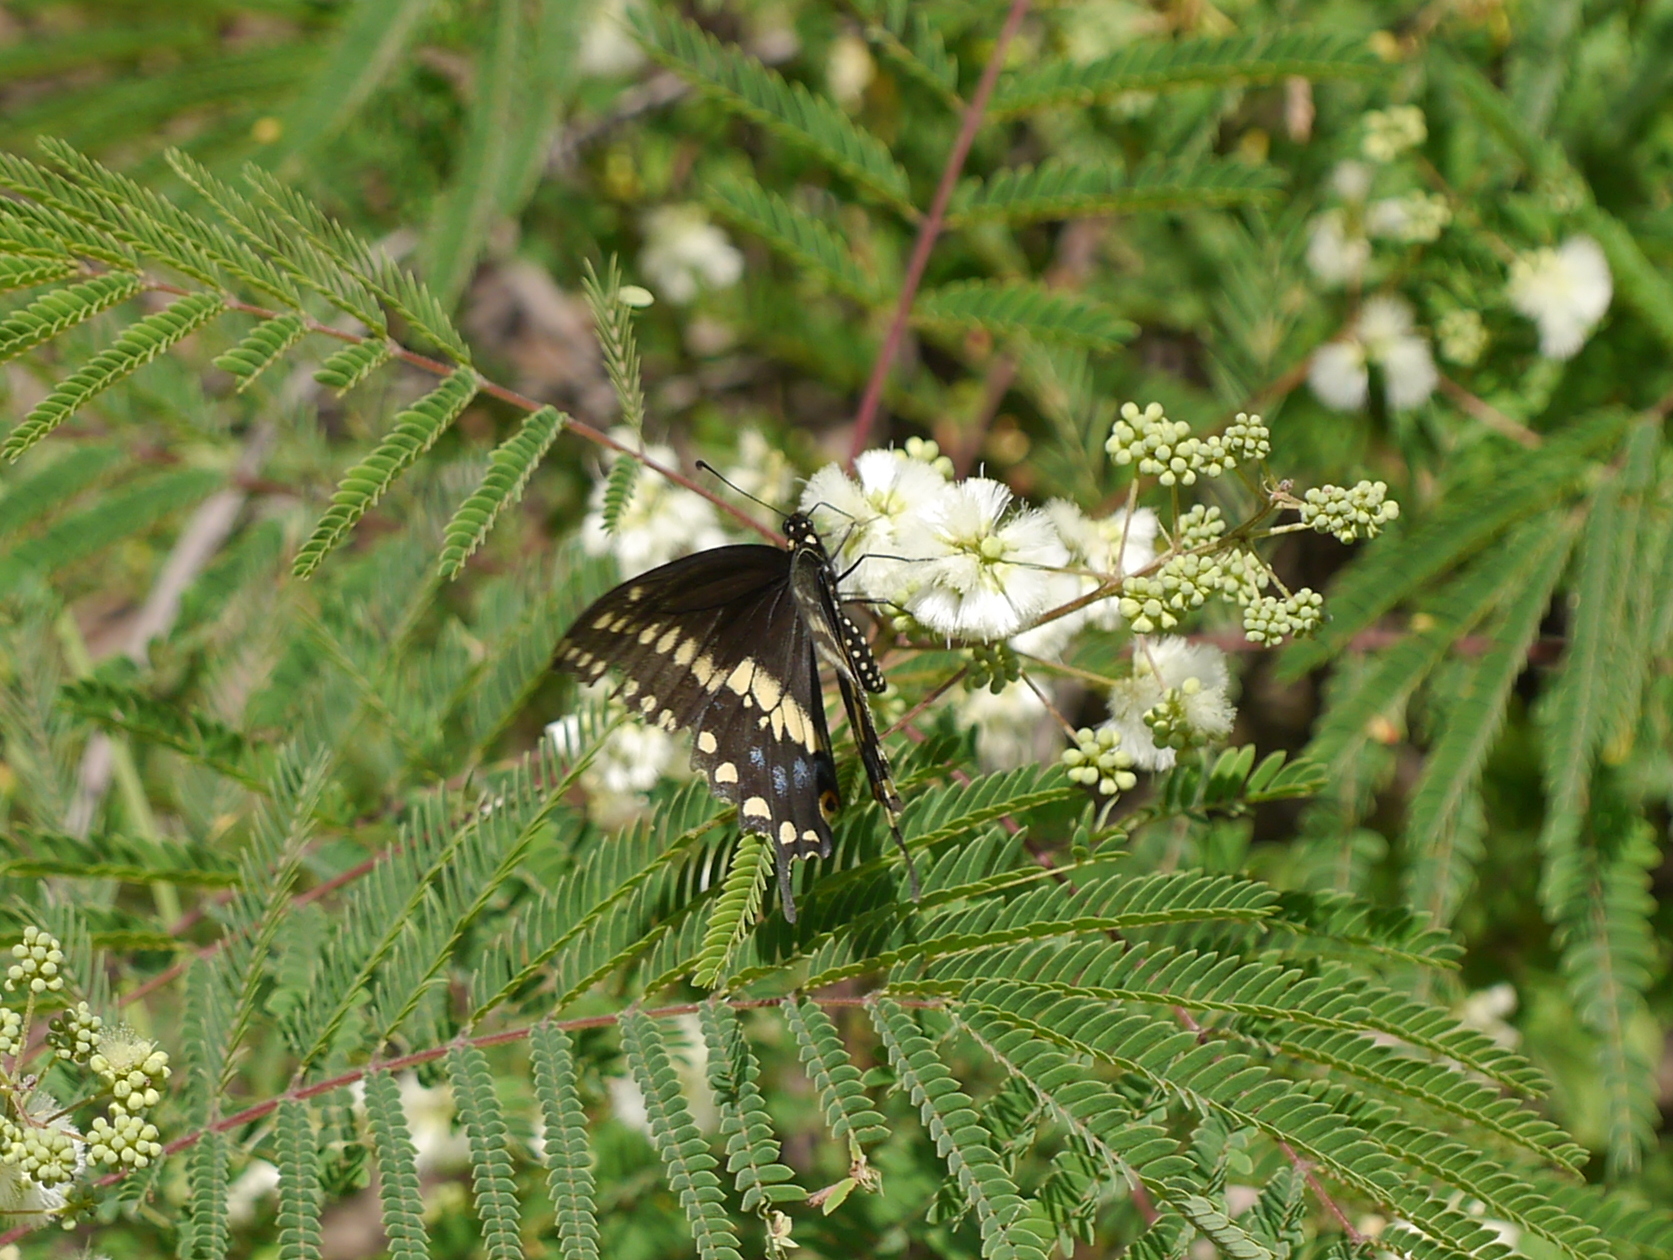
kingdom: Animalia
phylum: Arthropoda
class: Insecta
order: Lepidoptera
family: Papilionidae
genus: Papilio
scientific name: Papilio polyxenes
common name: Black swallowtail
